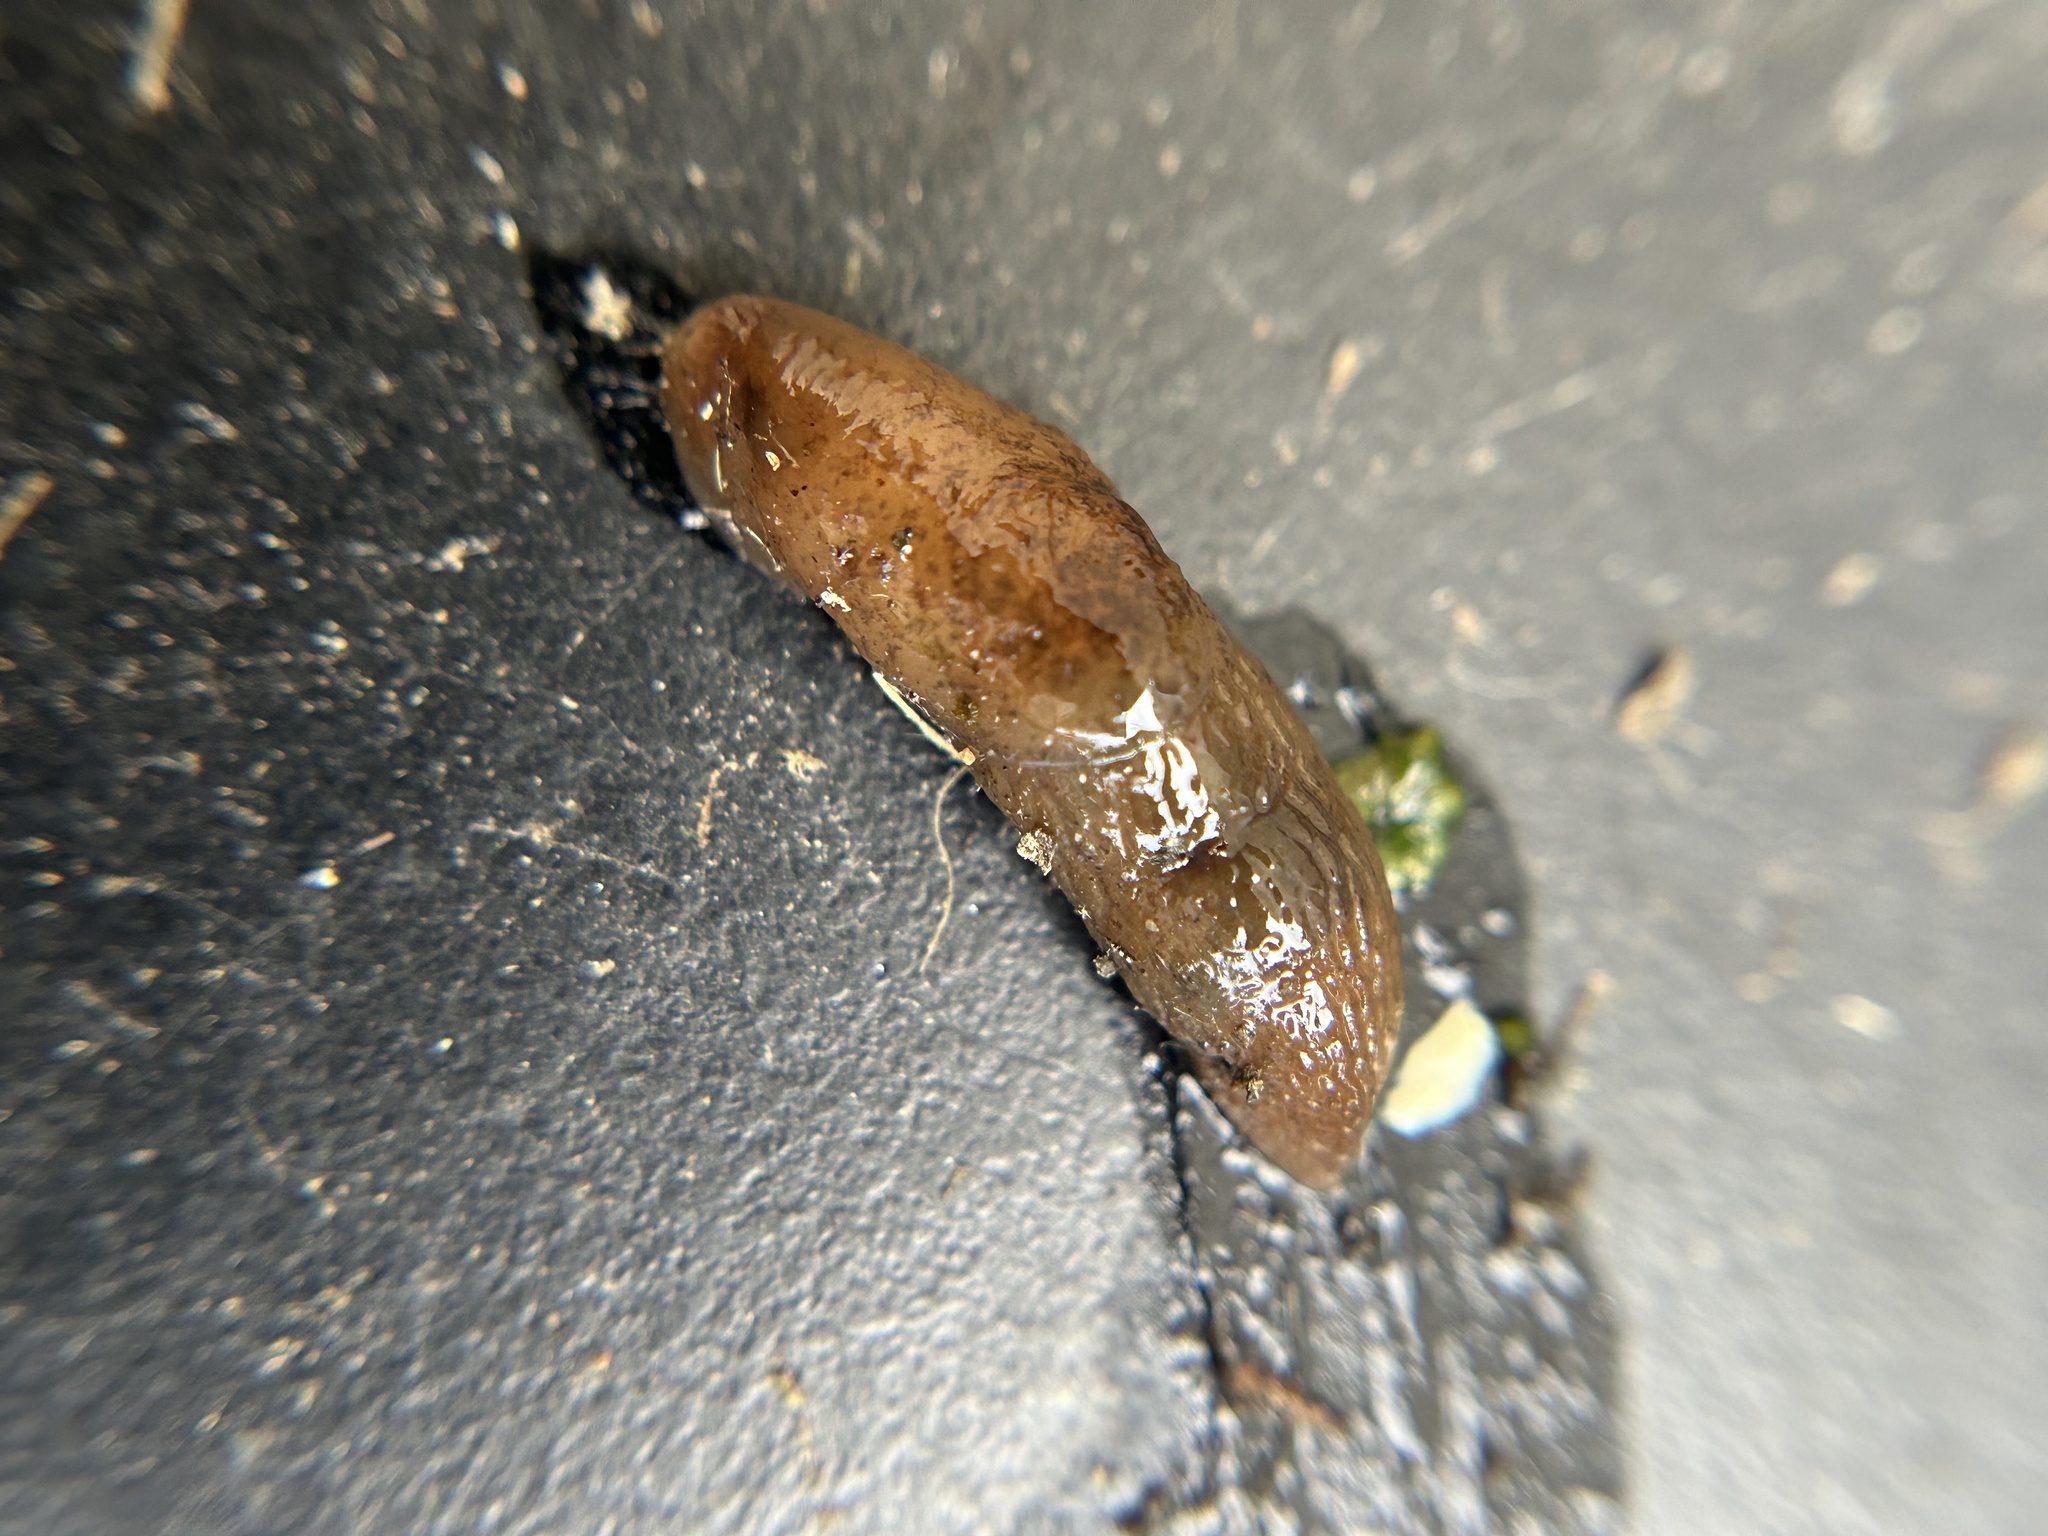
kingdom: Animalia
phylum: Mollusca
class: Gastropoda
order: Stylommatophora
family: Agriolimacidae
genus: Deroceras
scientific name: Deroceras laeve
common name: Marsh slug
